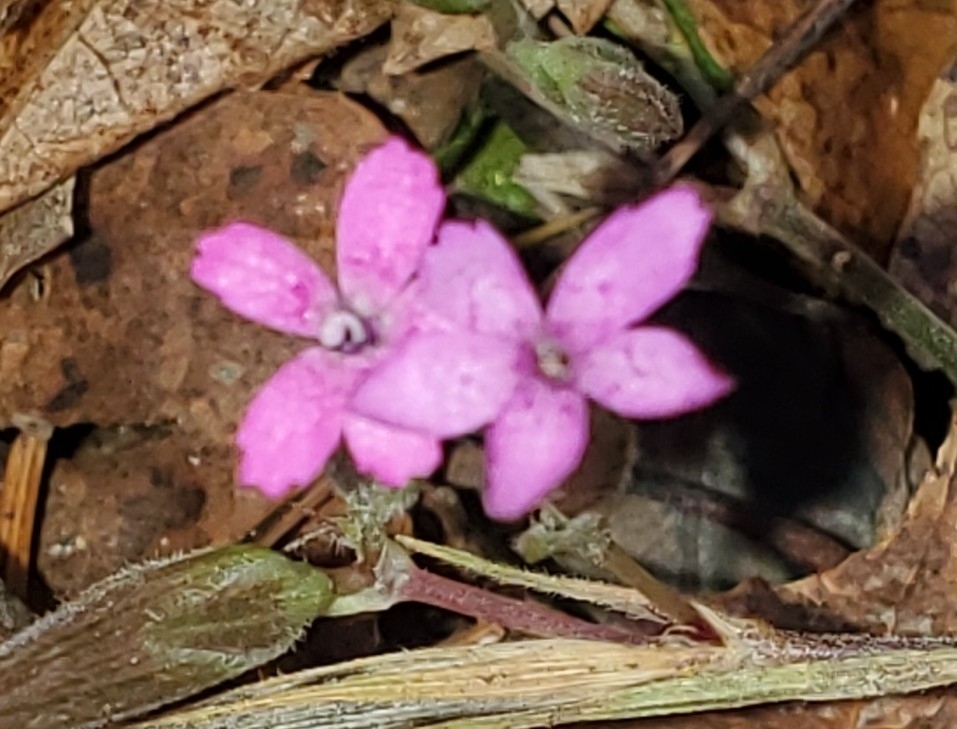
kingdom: Plantae
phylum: Tracheophyta
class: Magnoliopsida
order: Caryophyllales
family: Caryophyllaceae
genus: Dianthus
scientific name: Dianthus armeria
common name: Deptford pink
